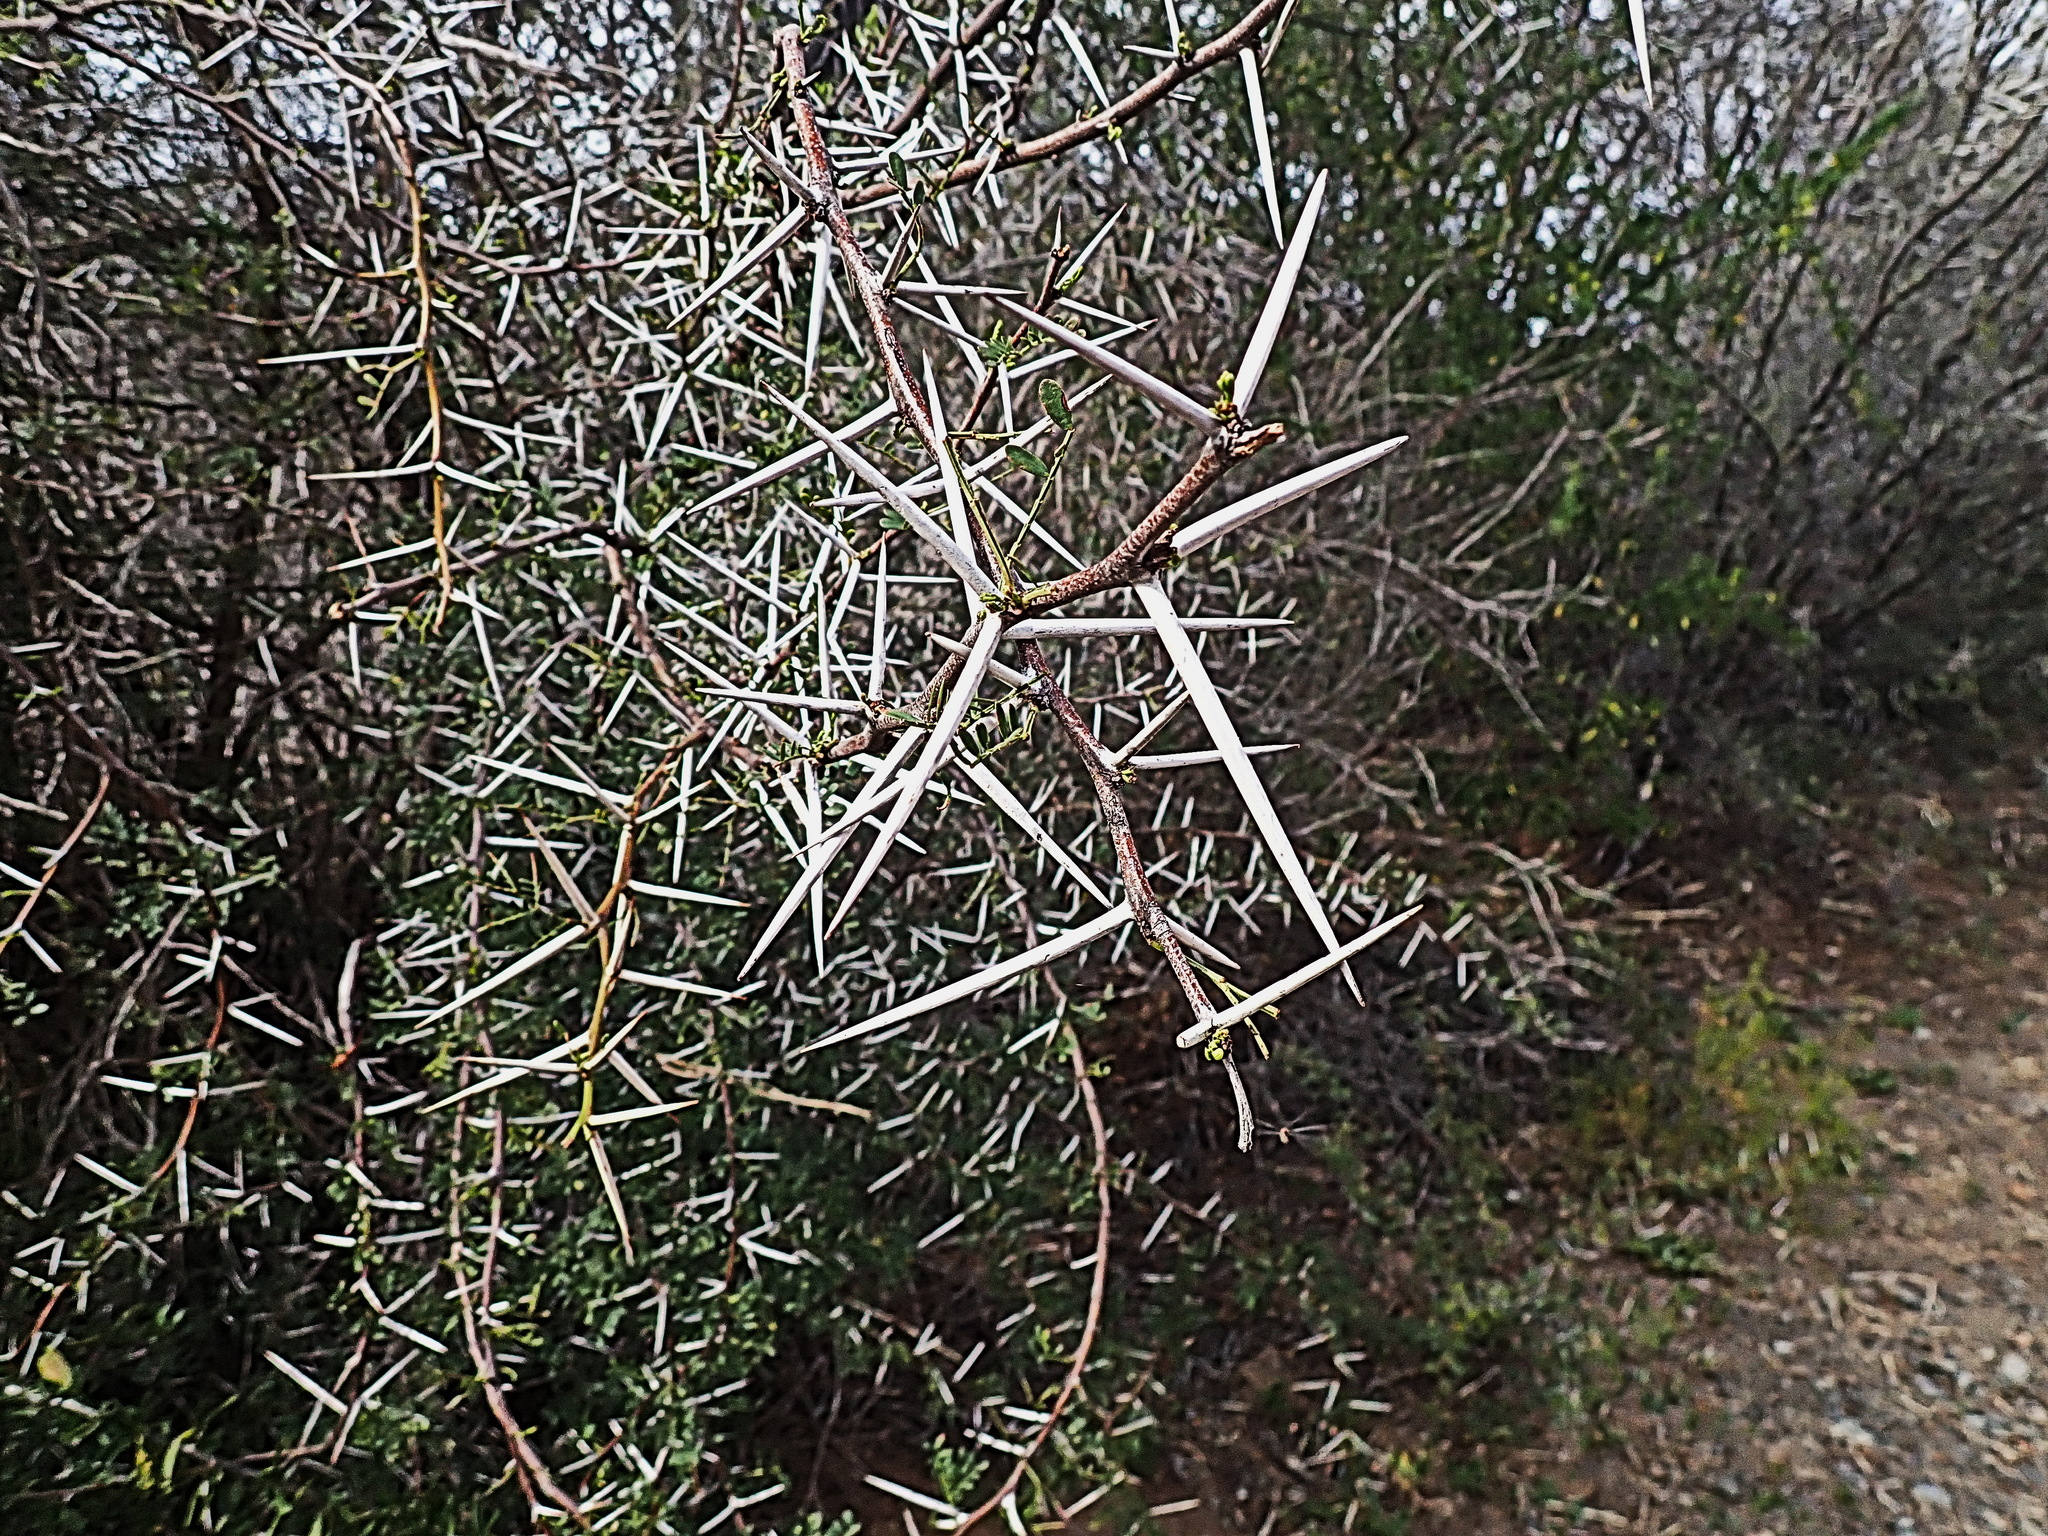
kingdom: Plantae
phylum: Tracheophyta
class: Magnoliopsida
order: Fabales
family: Fabaceae
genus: Vachellia
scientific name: Vachellia karroo
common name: Sweet thorn
